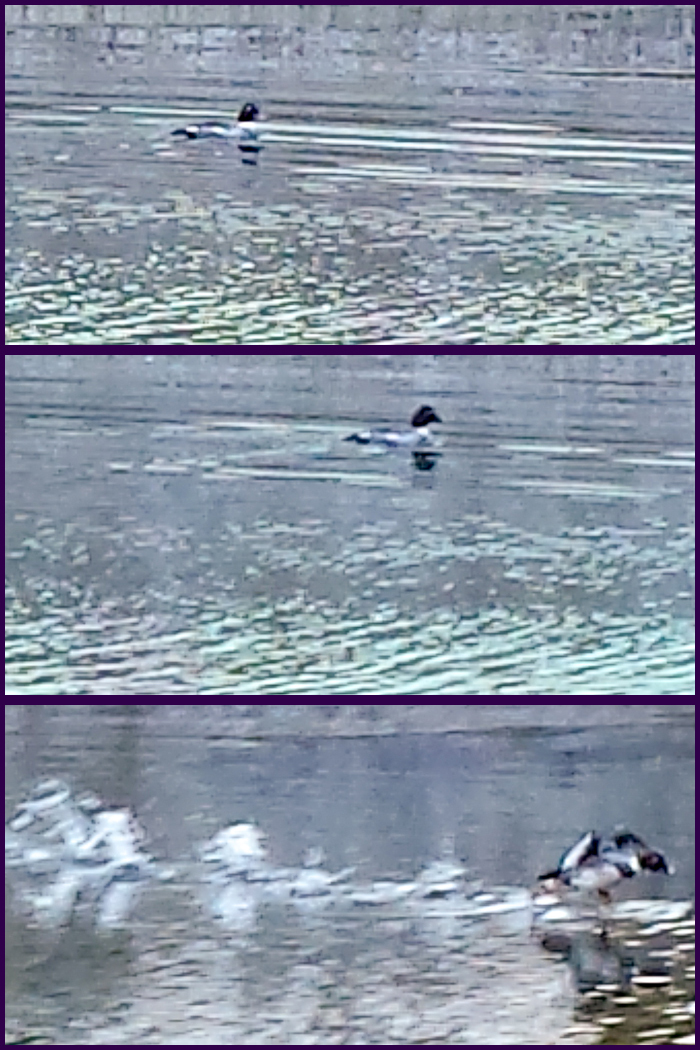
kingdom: Animalia
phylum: Chordata
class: Aves
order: Anseriformes
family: Anatidae
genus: Bucephala
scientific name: Bucephala clangula
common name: Common goldeneye
